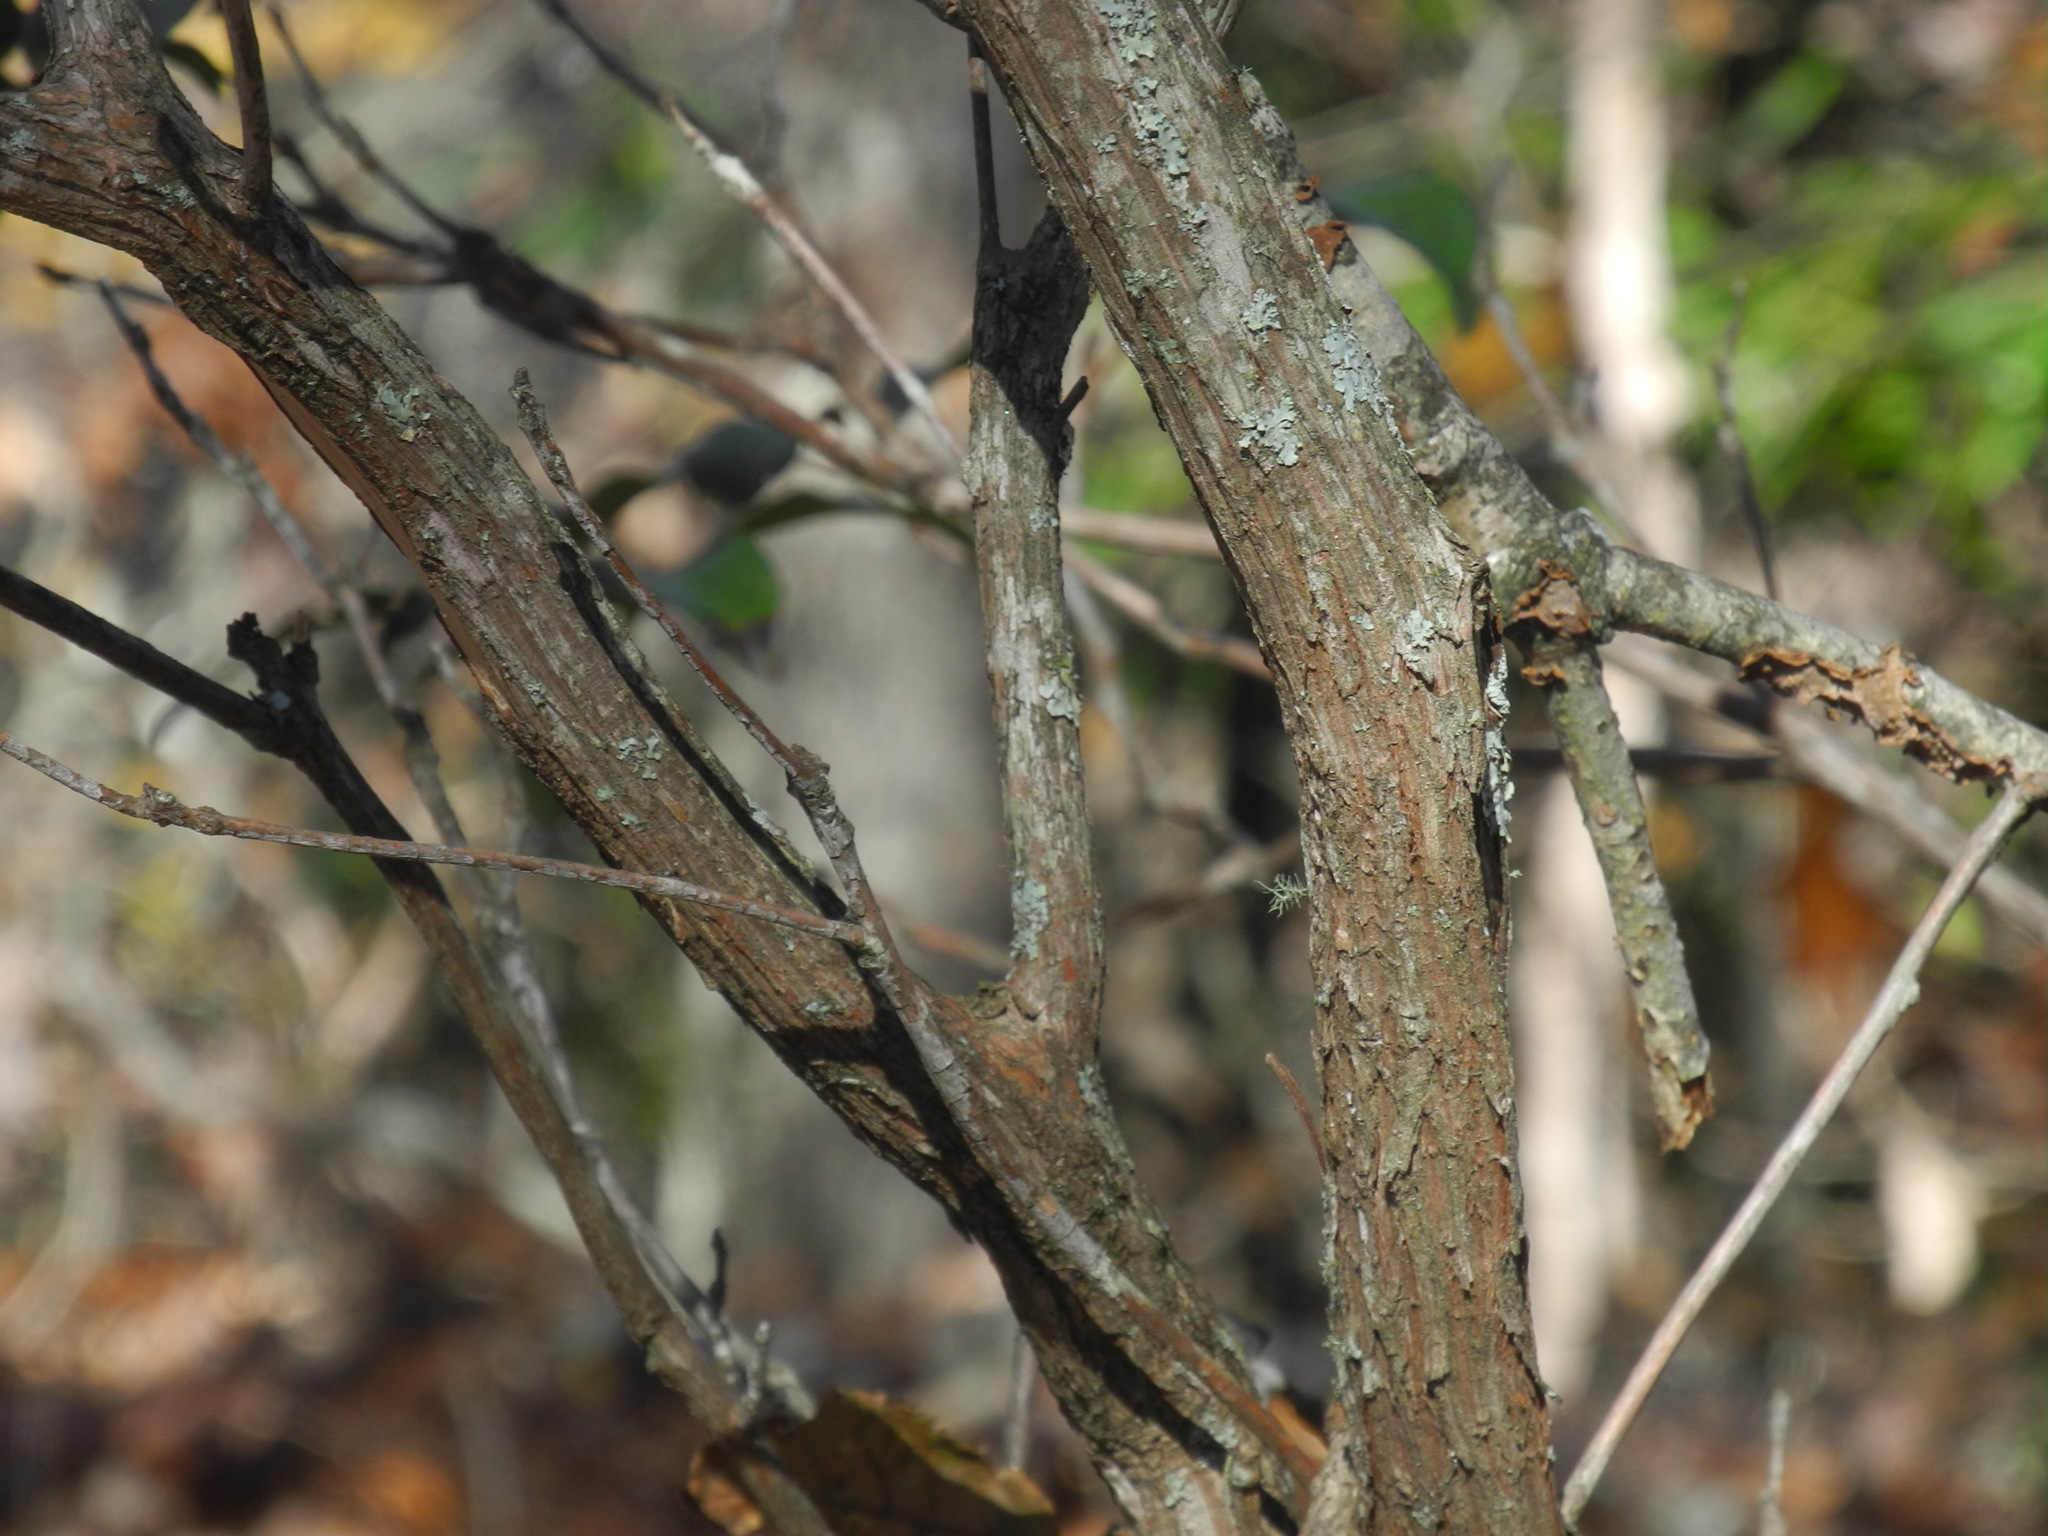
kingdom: Plantae
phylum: Tracheophyta
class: Magnoliopsida
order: Ericales
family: Ericaceae
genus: Kalmia
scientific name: Kalmia latifolia
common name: Mountain-laurel
